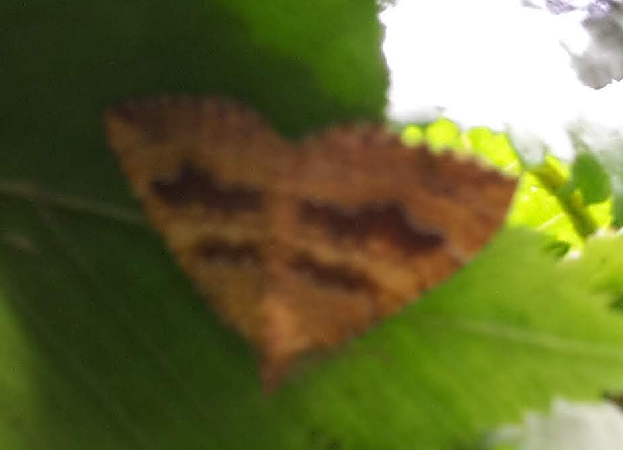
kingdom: Animalia
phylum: Arthropoda
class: Insecta
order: Lepidoptera
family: Geometridae
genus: Camptogramma
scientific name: Camptogramma bilineata
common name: Yellow shell
